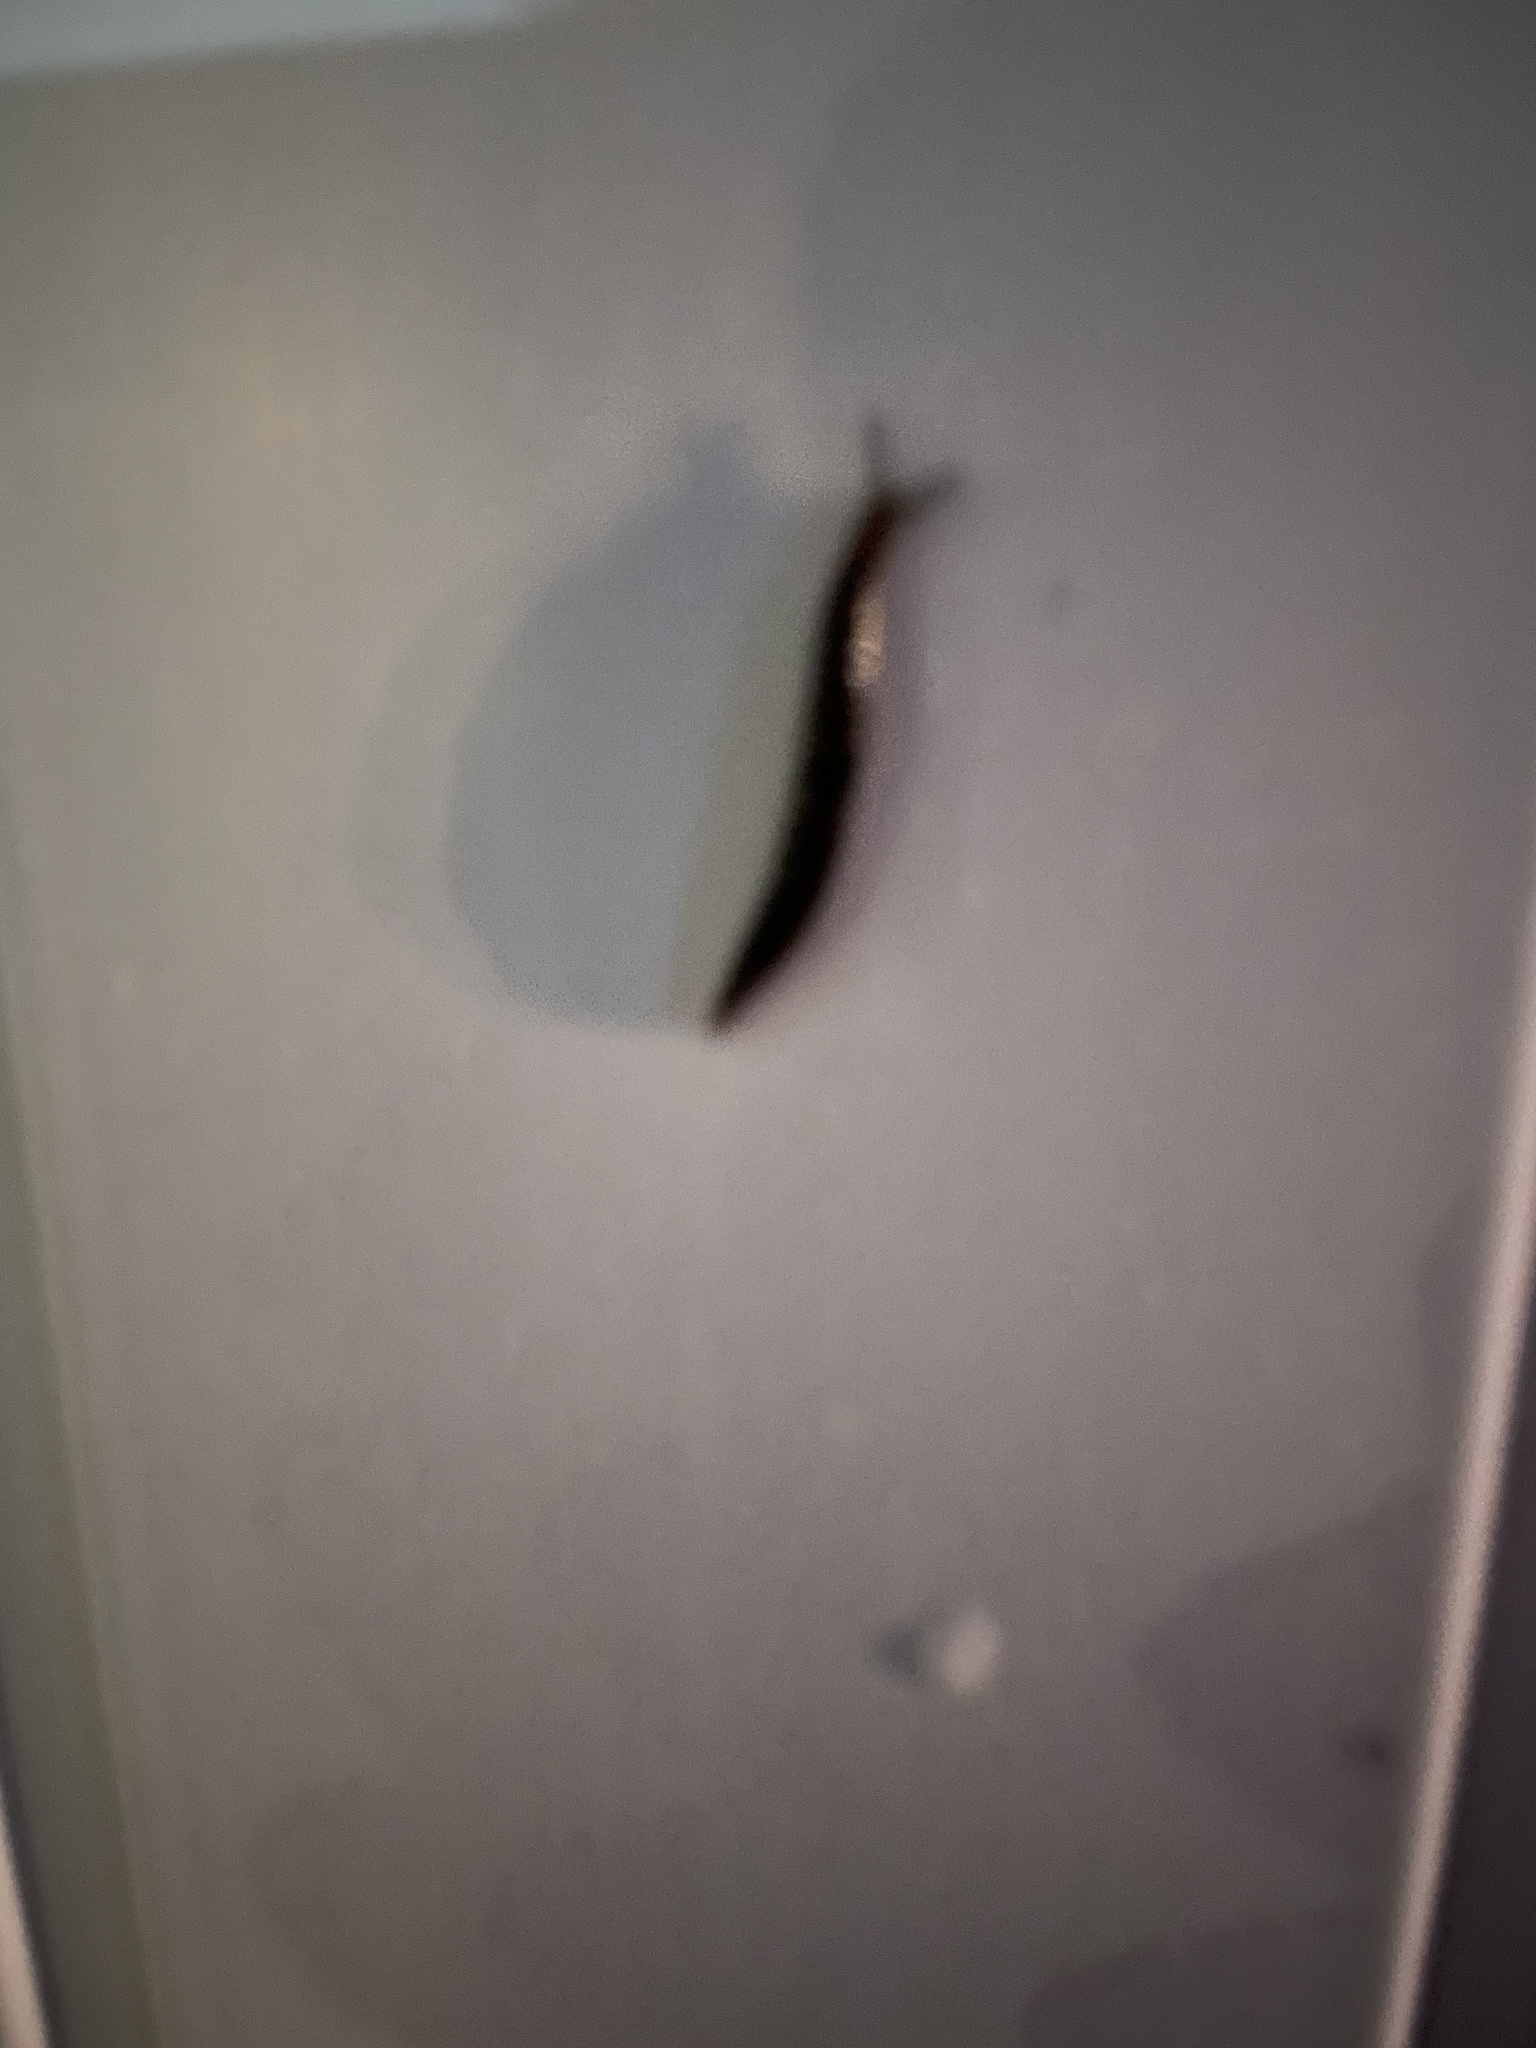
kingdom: Animalia
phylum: Mollusca
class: Gastropoda
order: Stylommatophora
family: Agriolimacidae
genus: Deroceras
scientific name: Deroceras laeve
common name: Marsh slug
